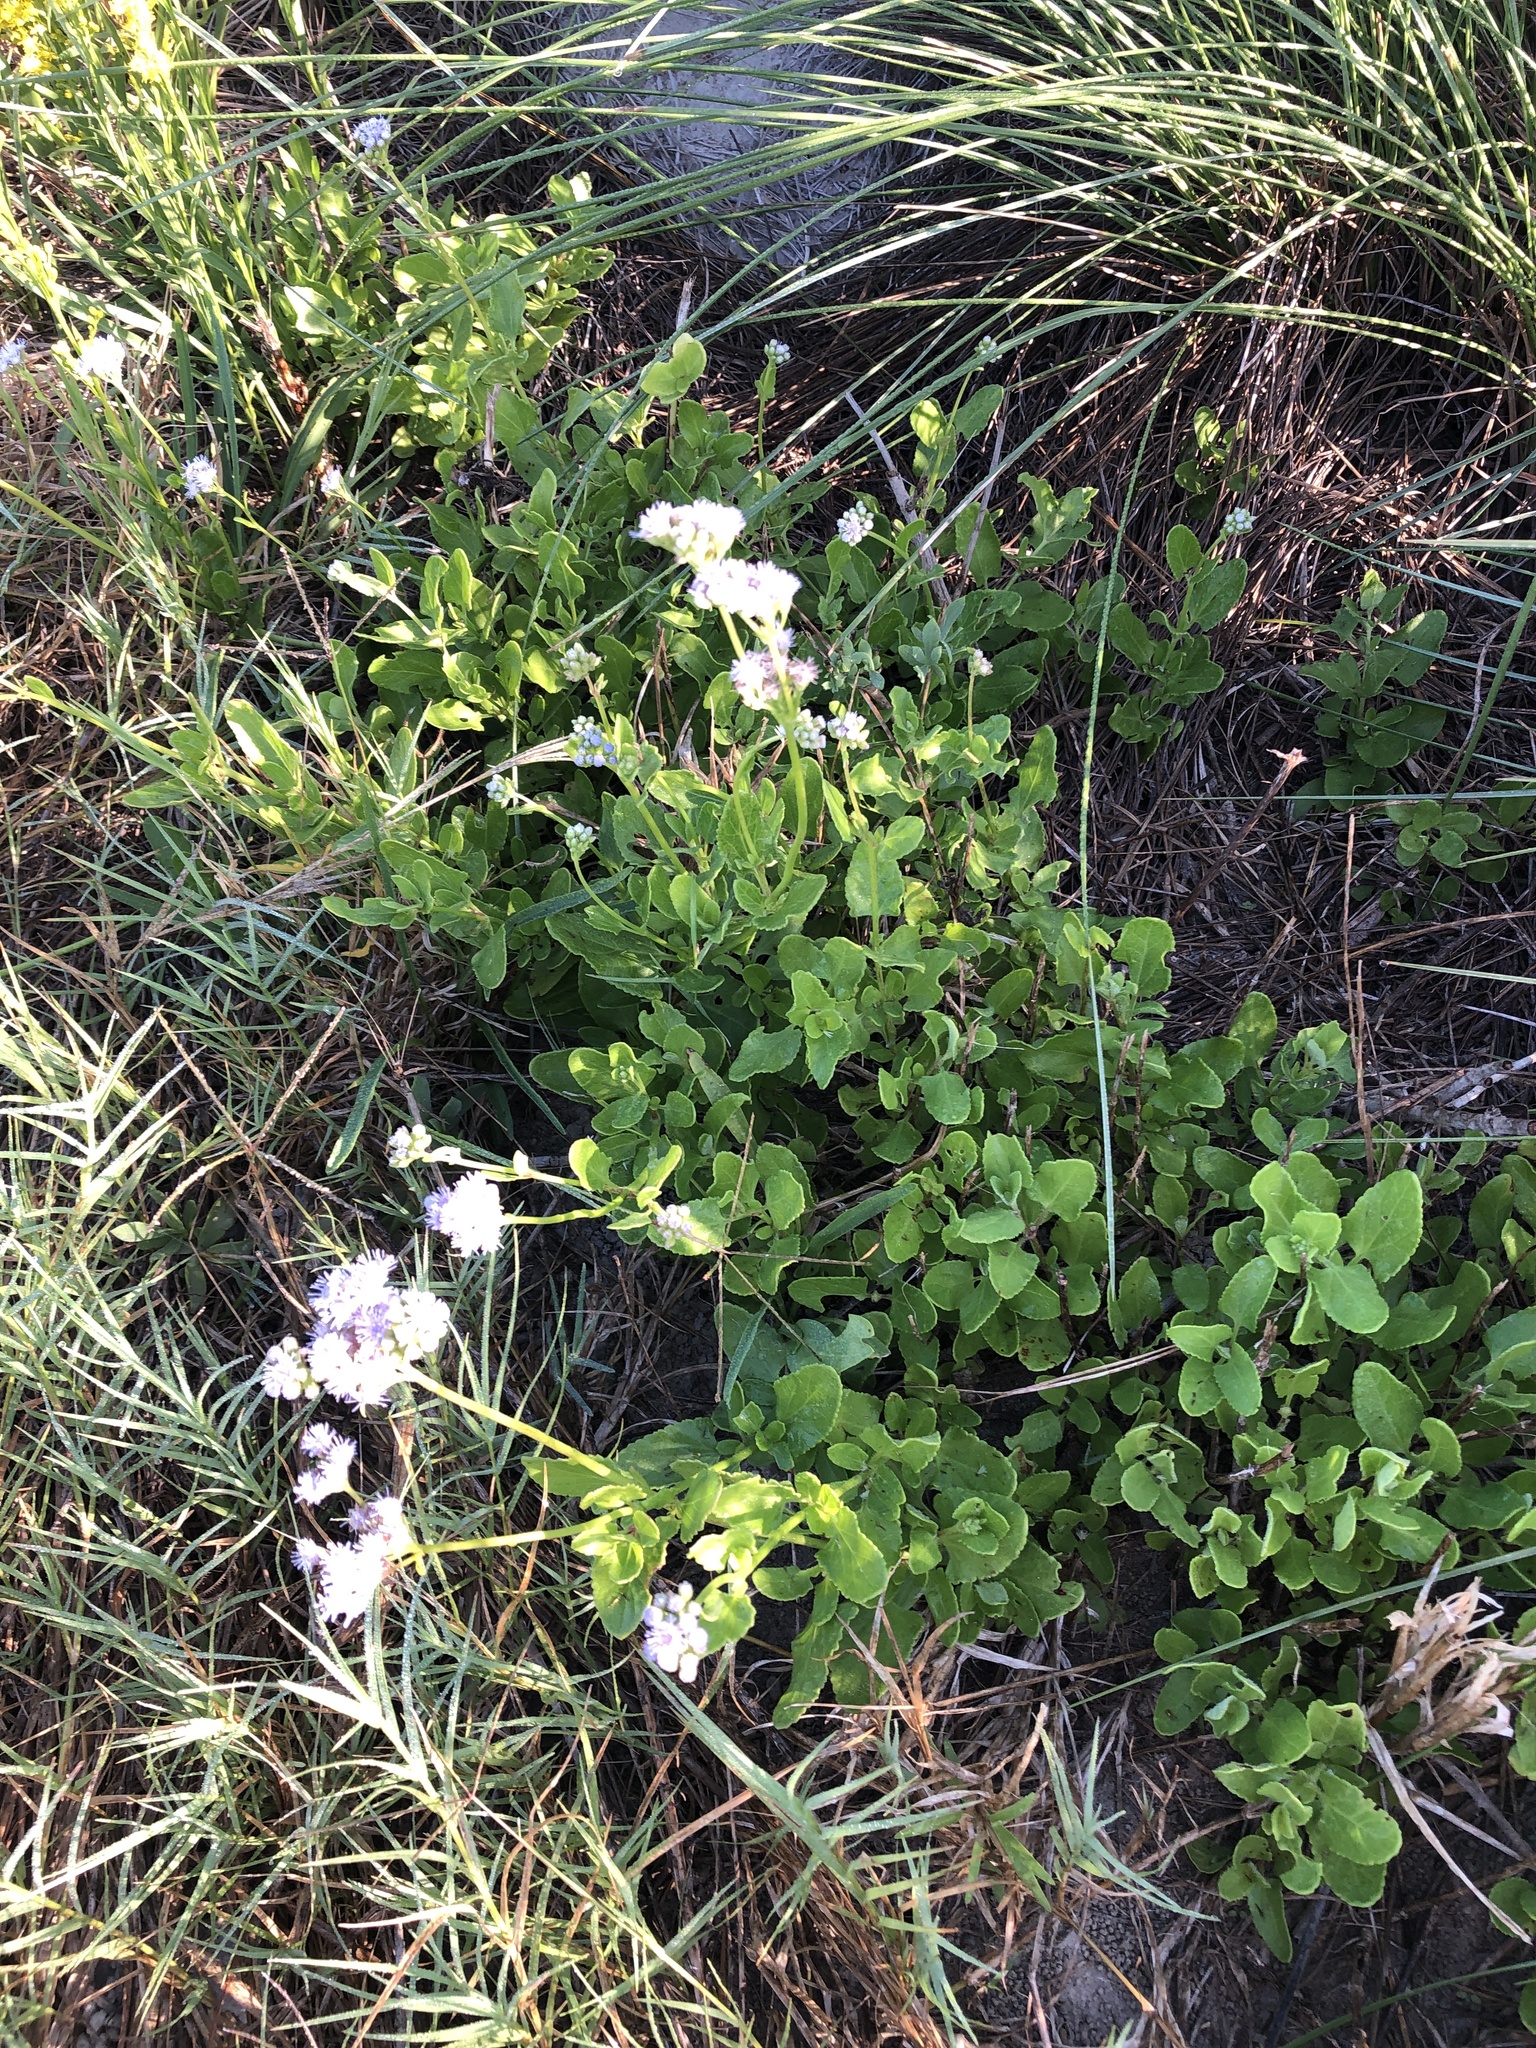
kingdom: Plantae
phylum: Tracheophyta
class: Magnoliopsida
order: Asterales
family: Asteraceae
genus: Conoclinium
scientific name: Conoclinium betonicifolium
